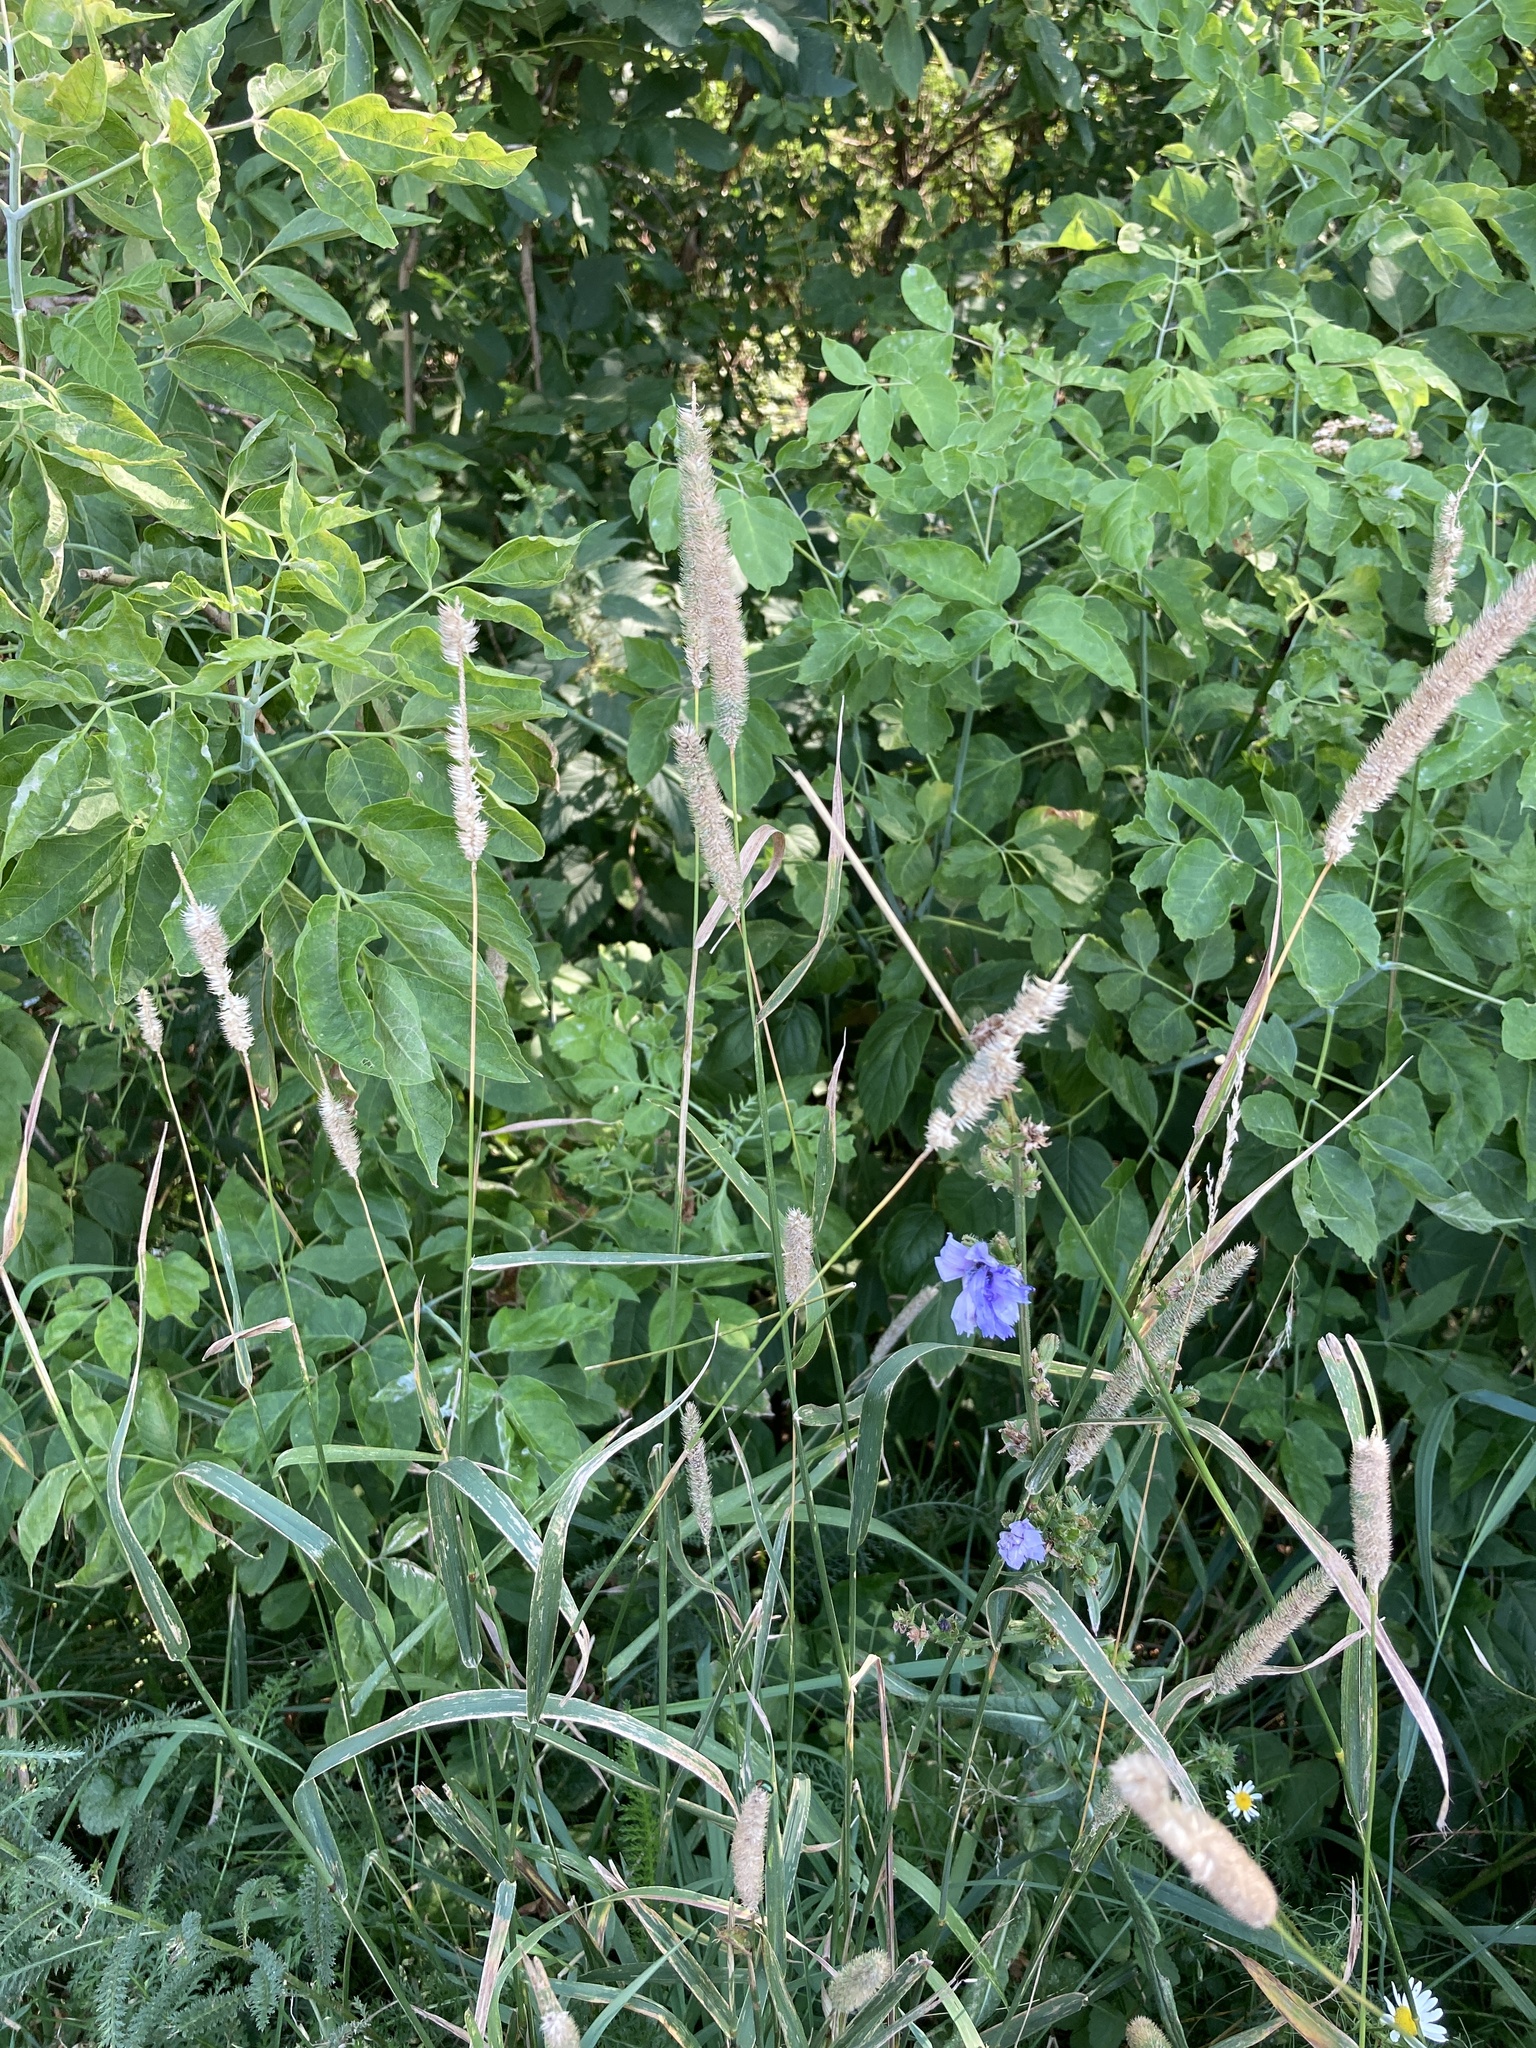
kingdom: Plantae
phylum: Tracheophyta
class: Liliopsida
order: Poales
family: Poaceae
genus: Phleum
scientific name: Phleum pratense
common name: Timothy grass
